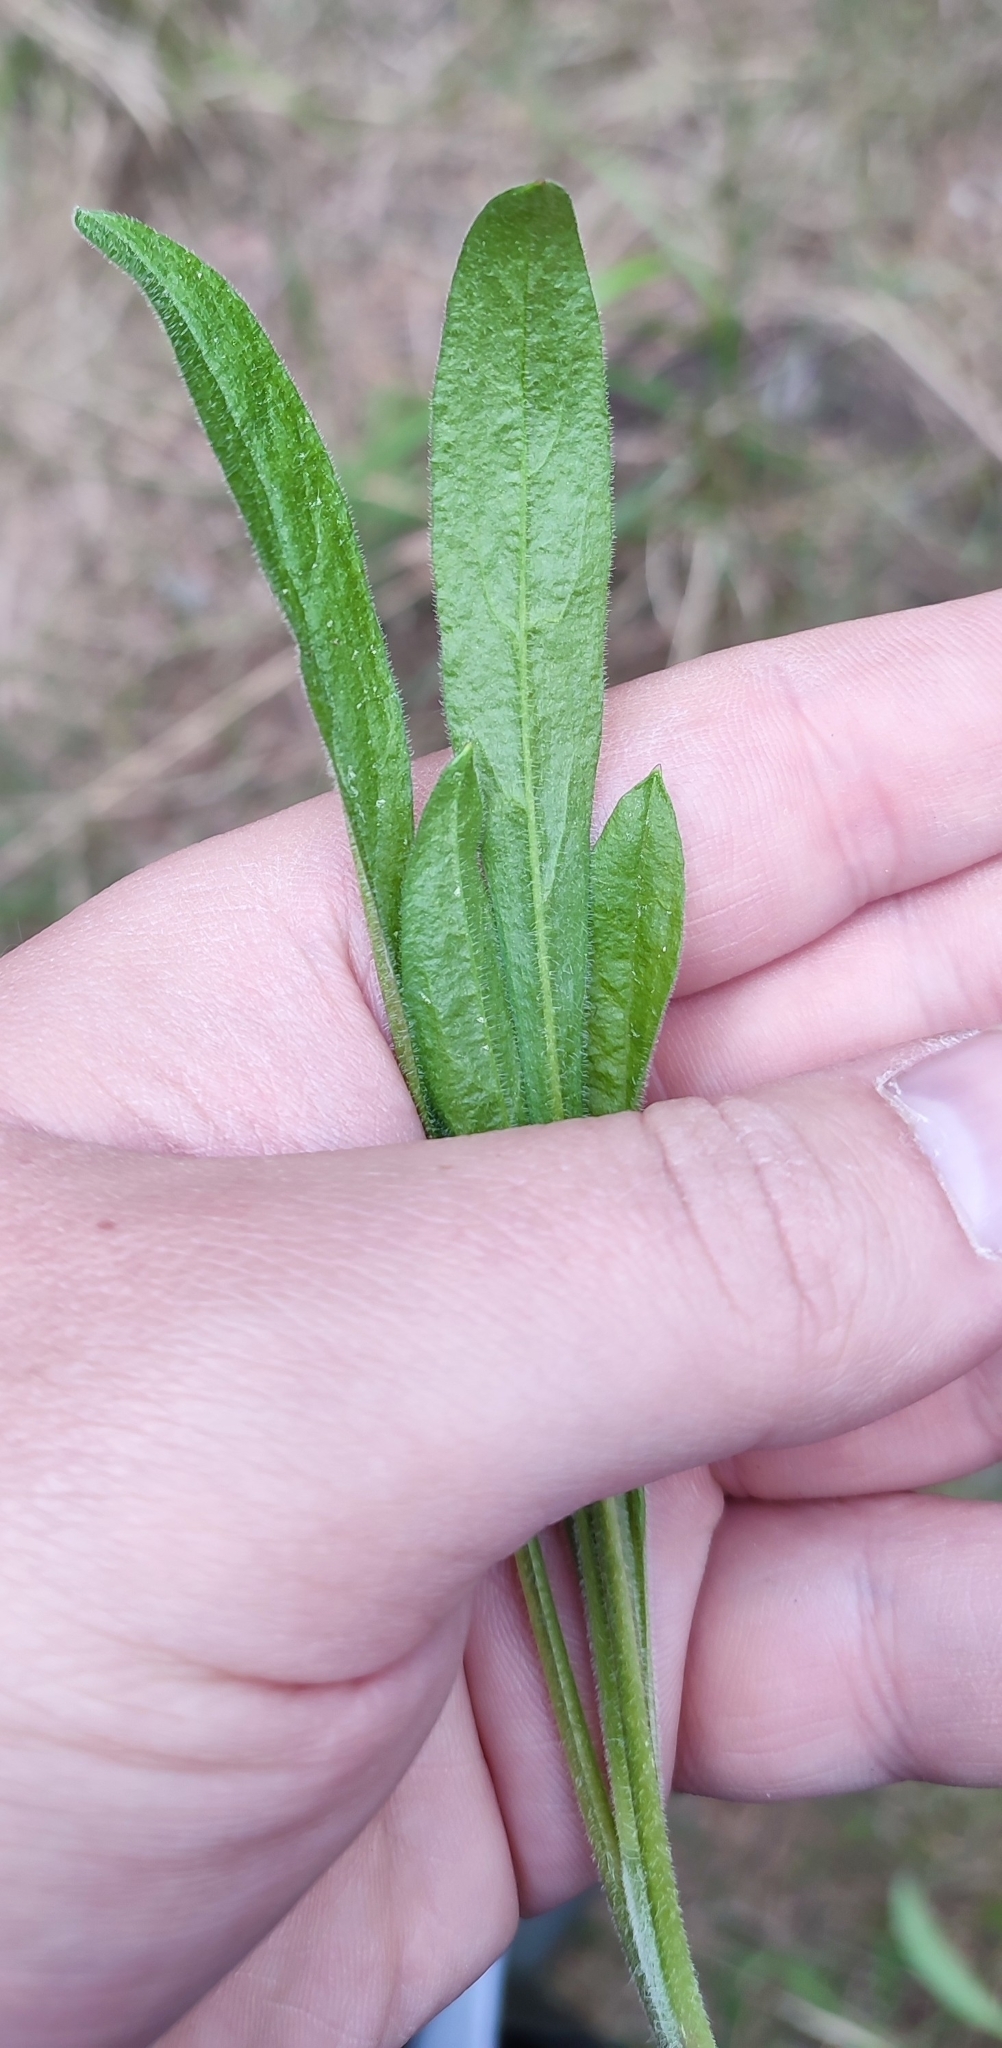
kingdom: Plantae
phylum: Tracheophyta
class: Magnoliopsida
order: Caryophyllales
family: Caryophyllaceae
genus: Silene
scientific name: Silene nutans
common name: Nottingham catchfly
